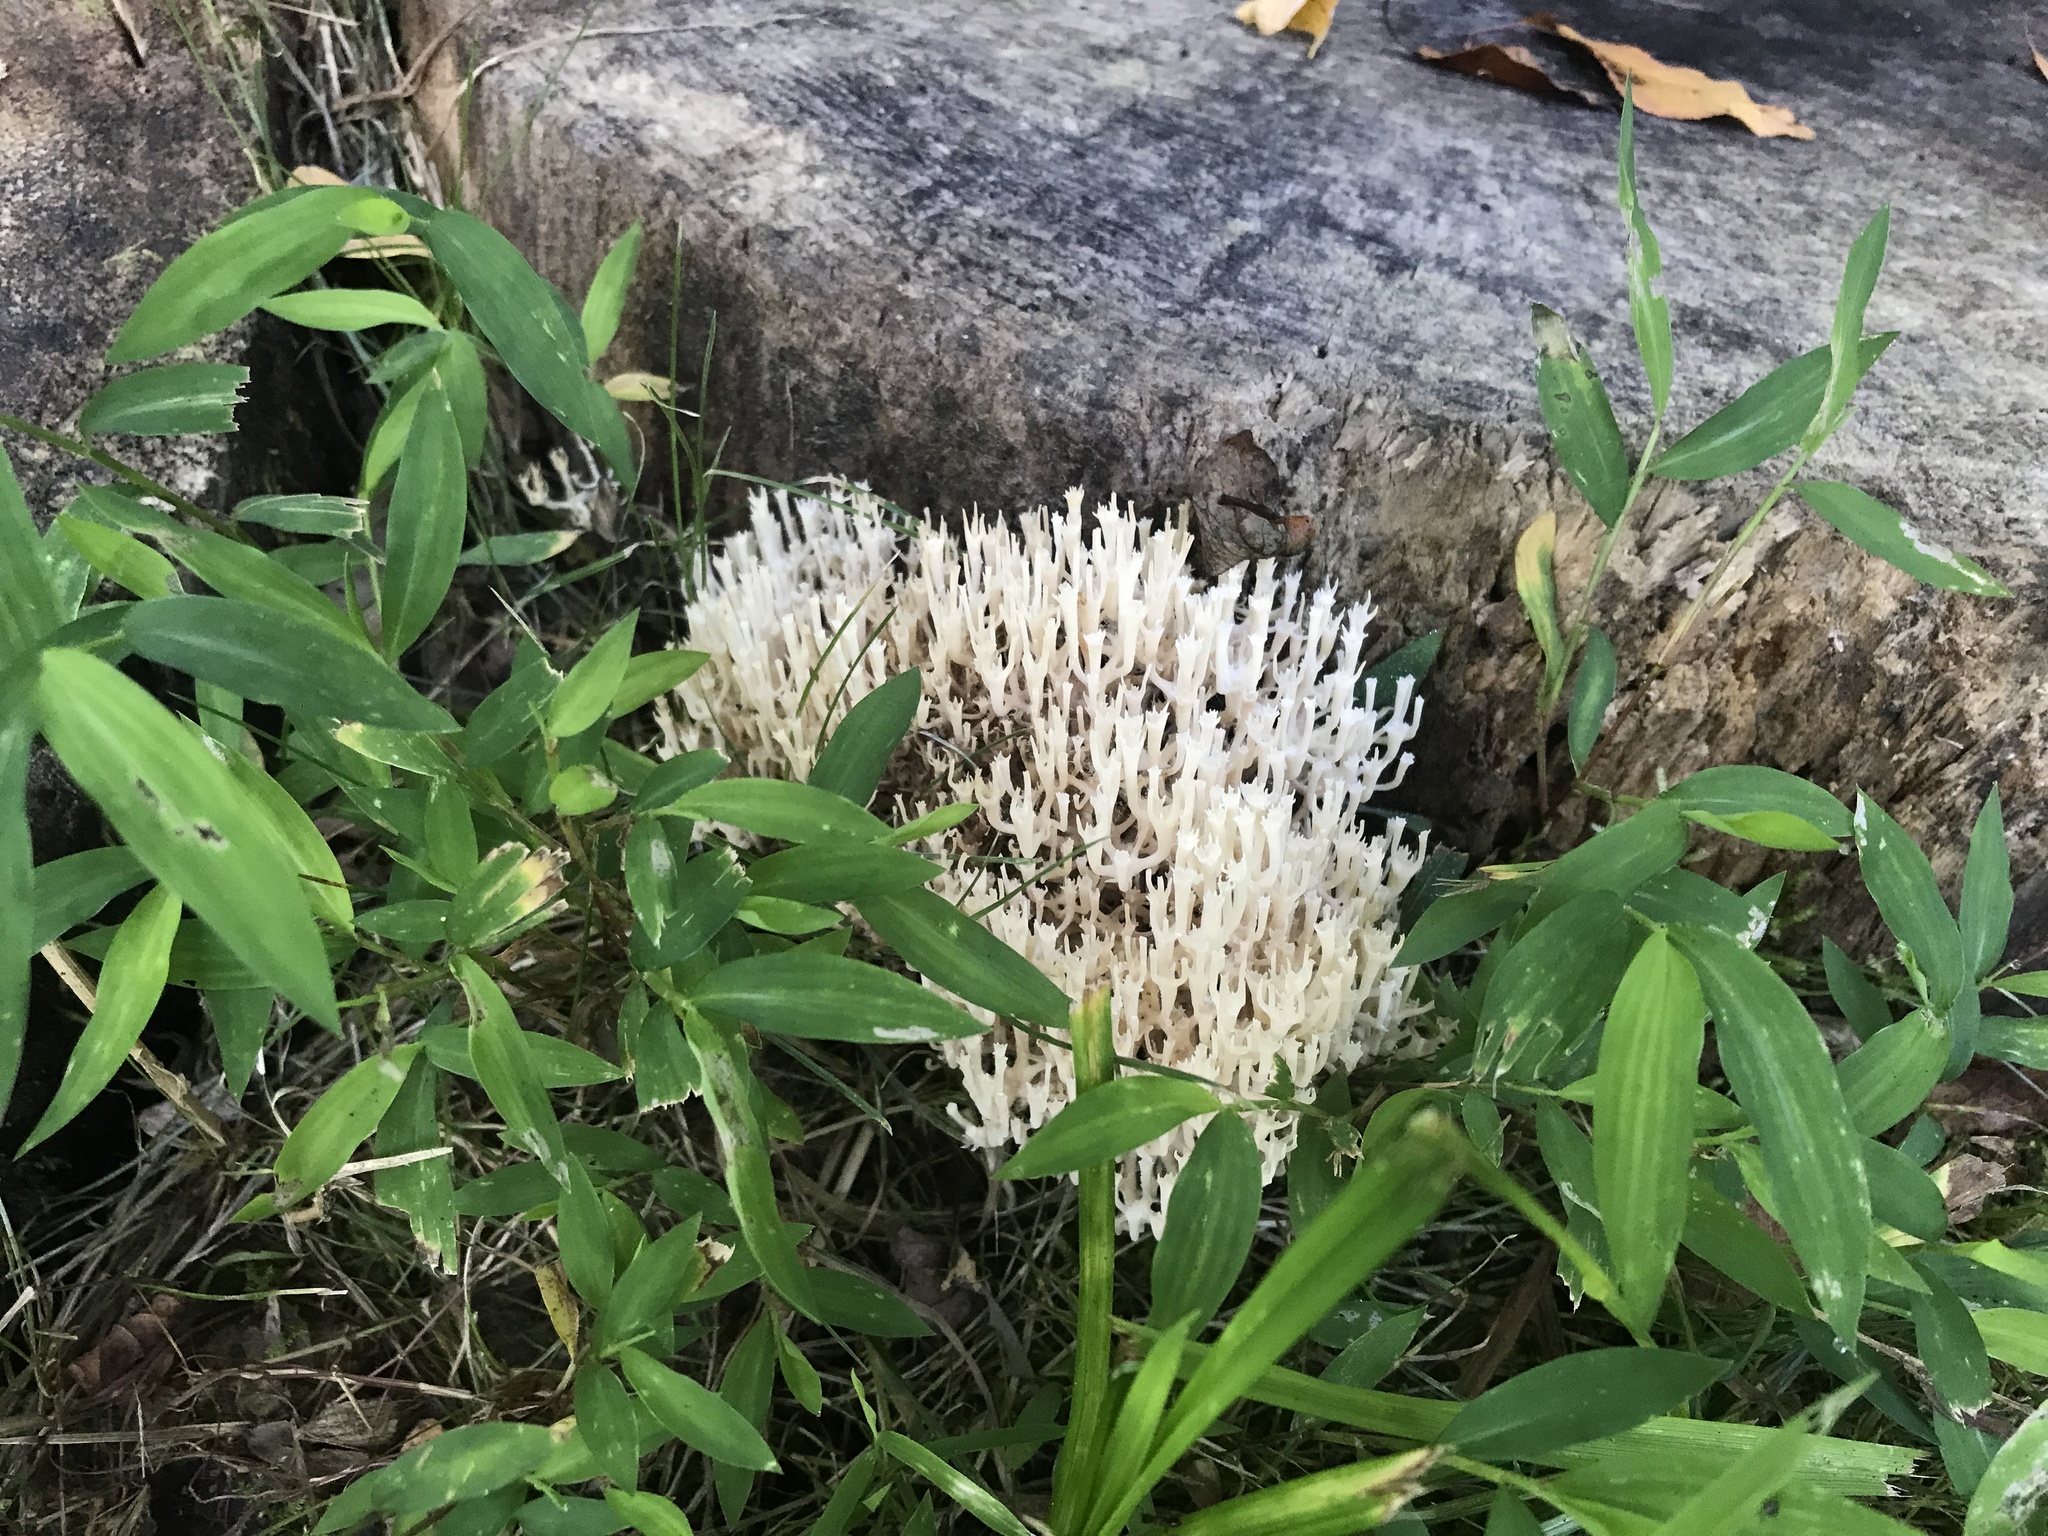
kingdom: Fungi
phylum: Basidiomycota
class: Agaricomycetes
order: Russulales
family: Auriscalpiaceae
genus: Artomyces
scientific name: Artomyces pyxidatus
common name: Crown-tipped coral fungus
